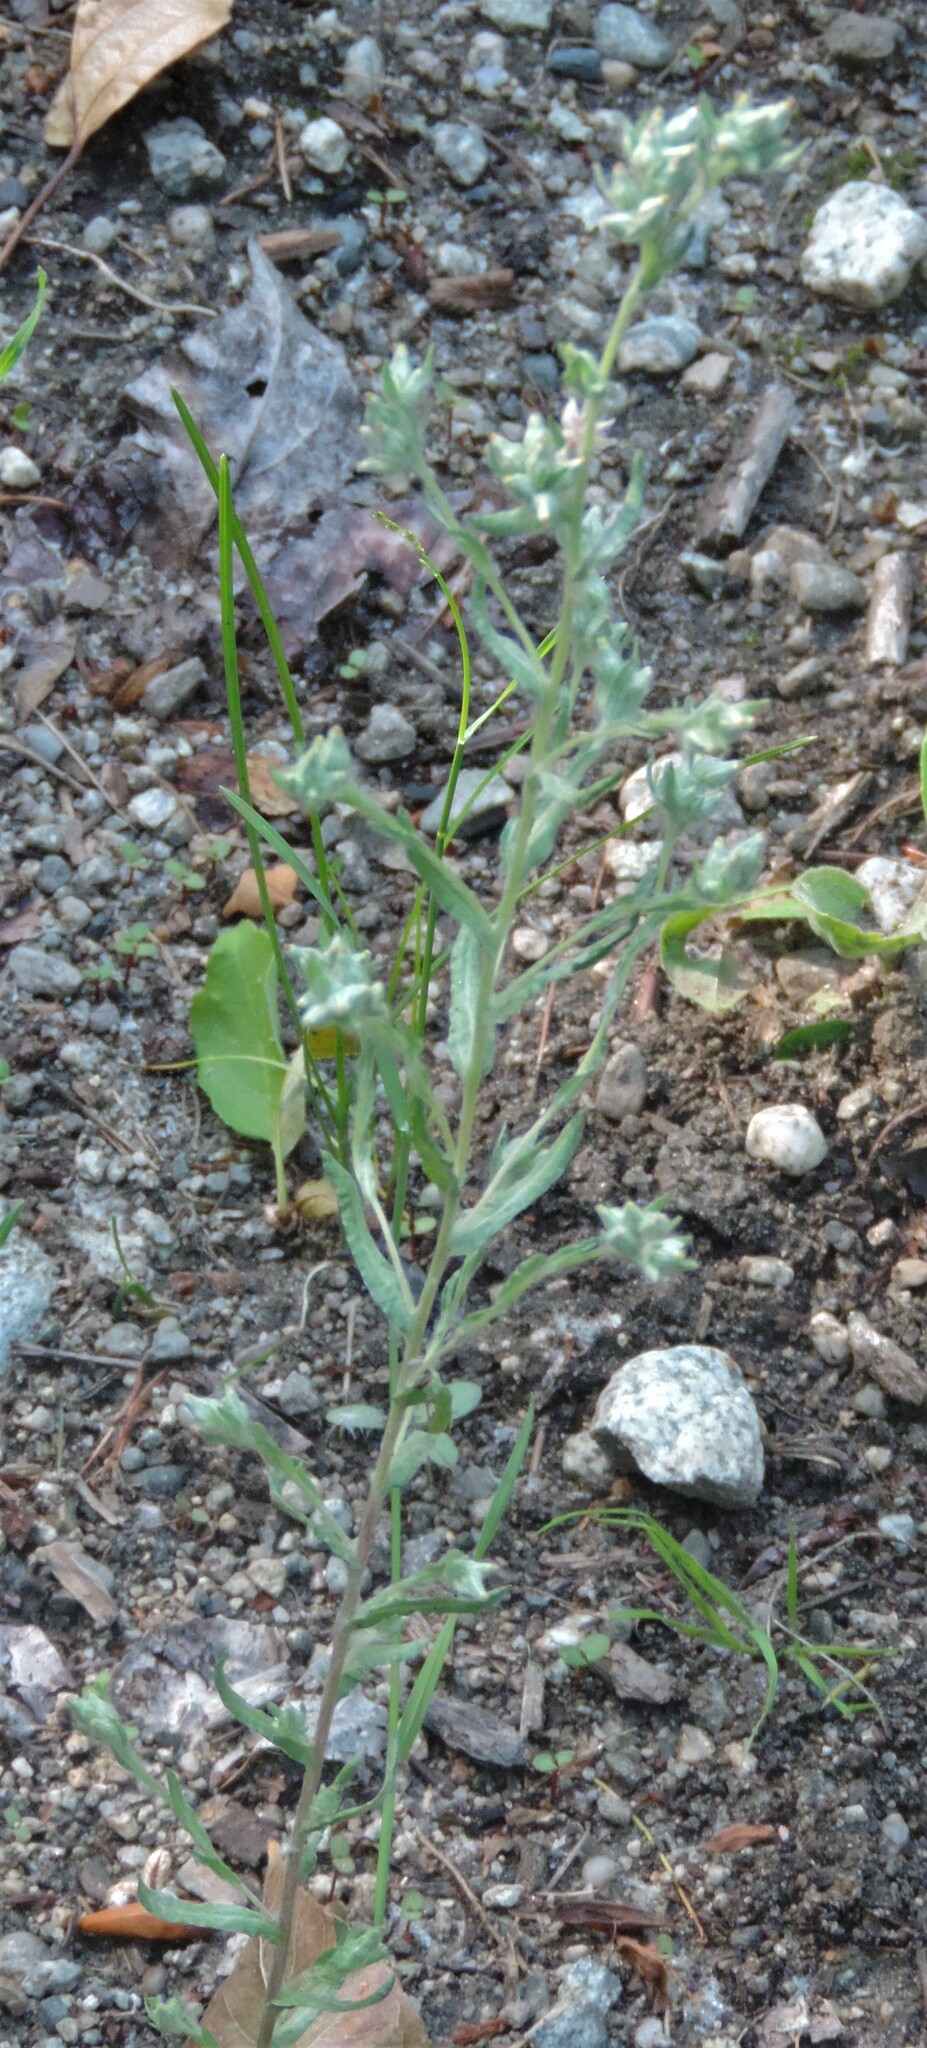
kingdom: Plantae
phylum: Tracheophyta
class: Magnoliopsida
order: Asterales
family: Asteraceae
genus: Filago
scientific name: Filago arvensis
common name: Field cudweed
